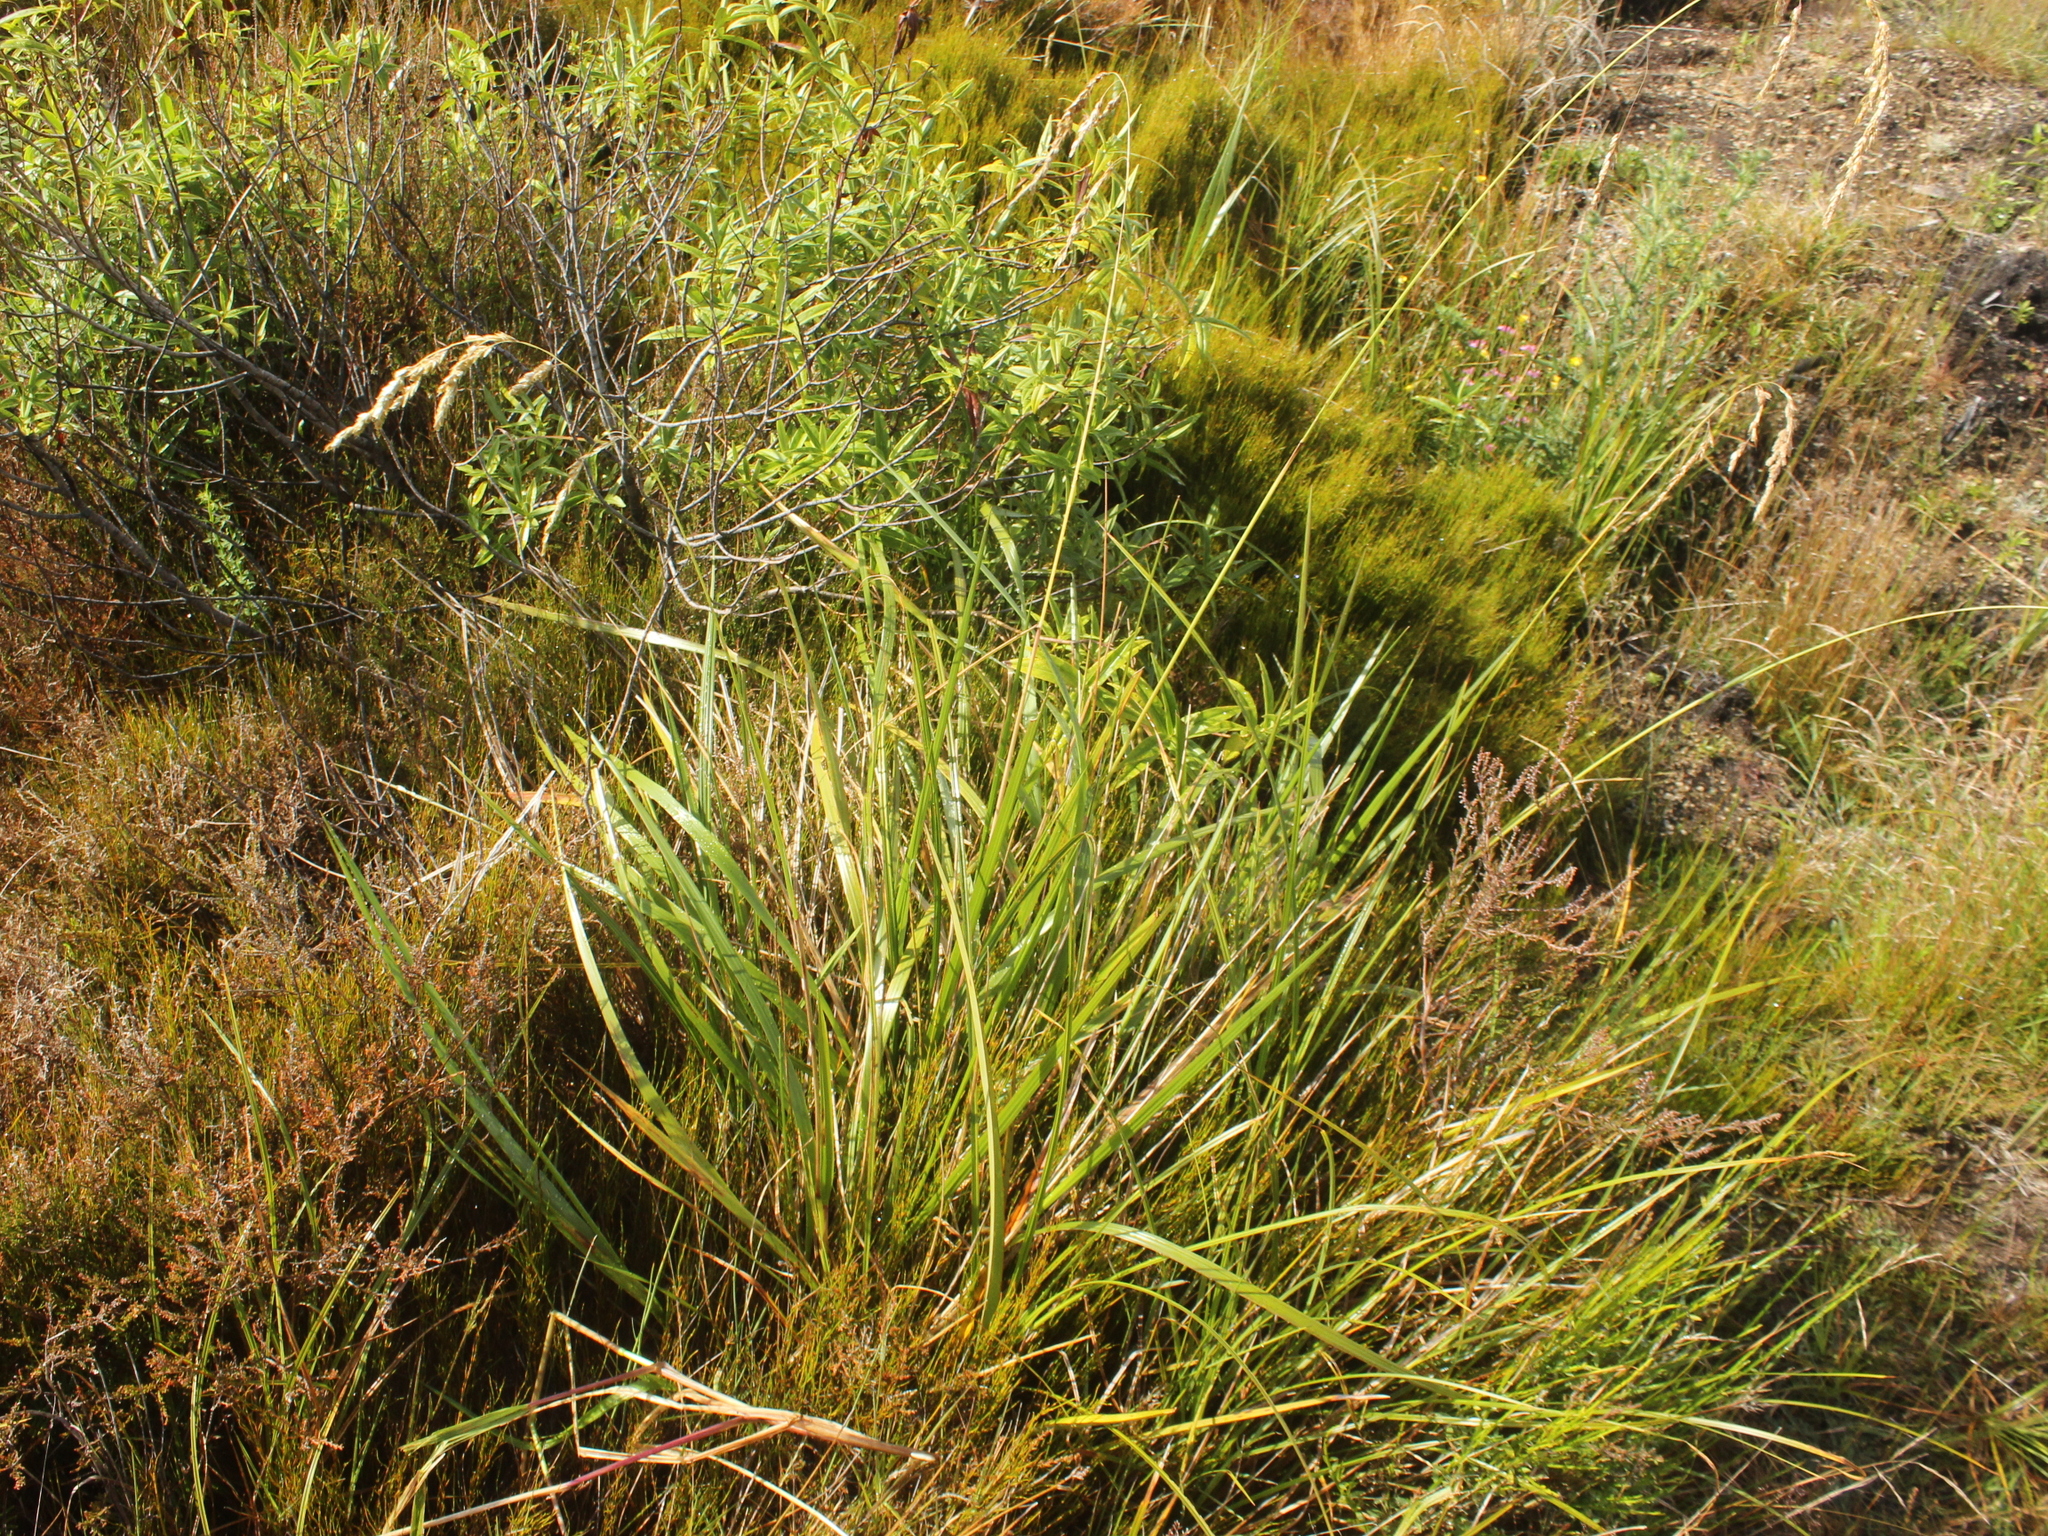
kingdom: Plantae
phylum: Tracheophyta
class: Liliopsida
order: Poales
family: Poaceae
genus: Anthoxanthum
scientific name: Anthoxanthum redolens
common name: Sweet holy grass
